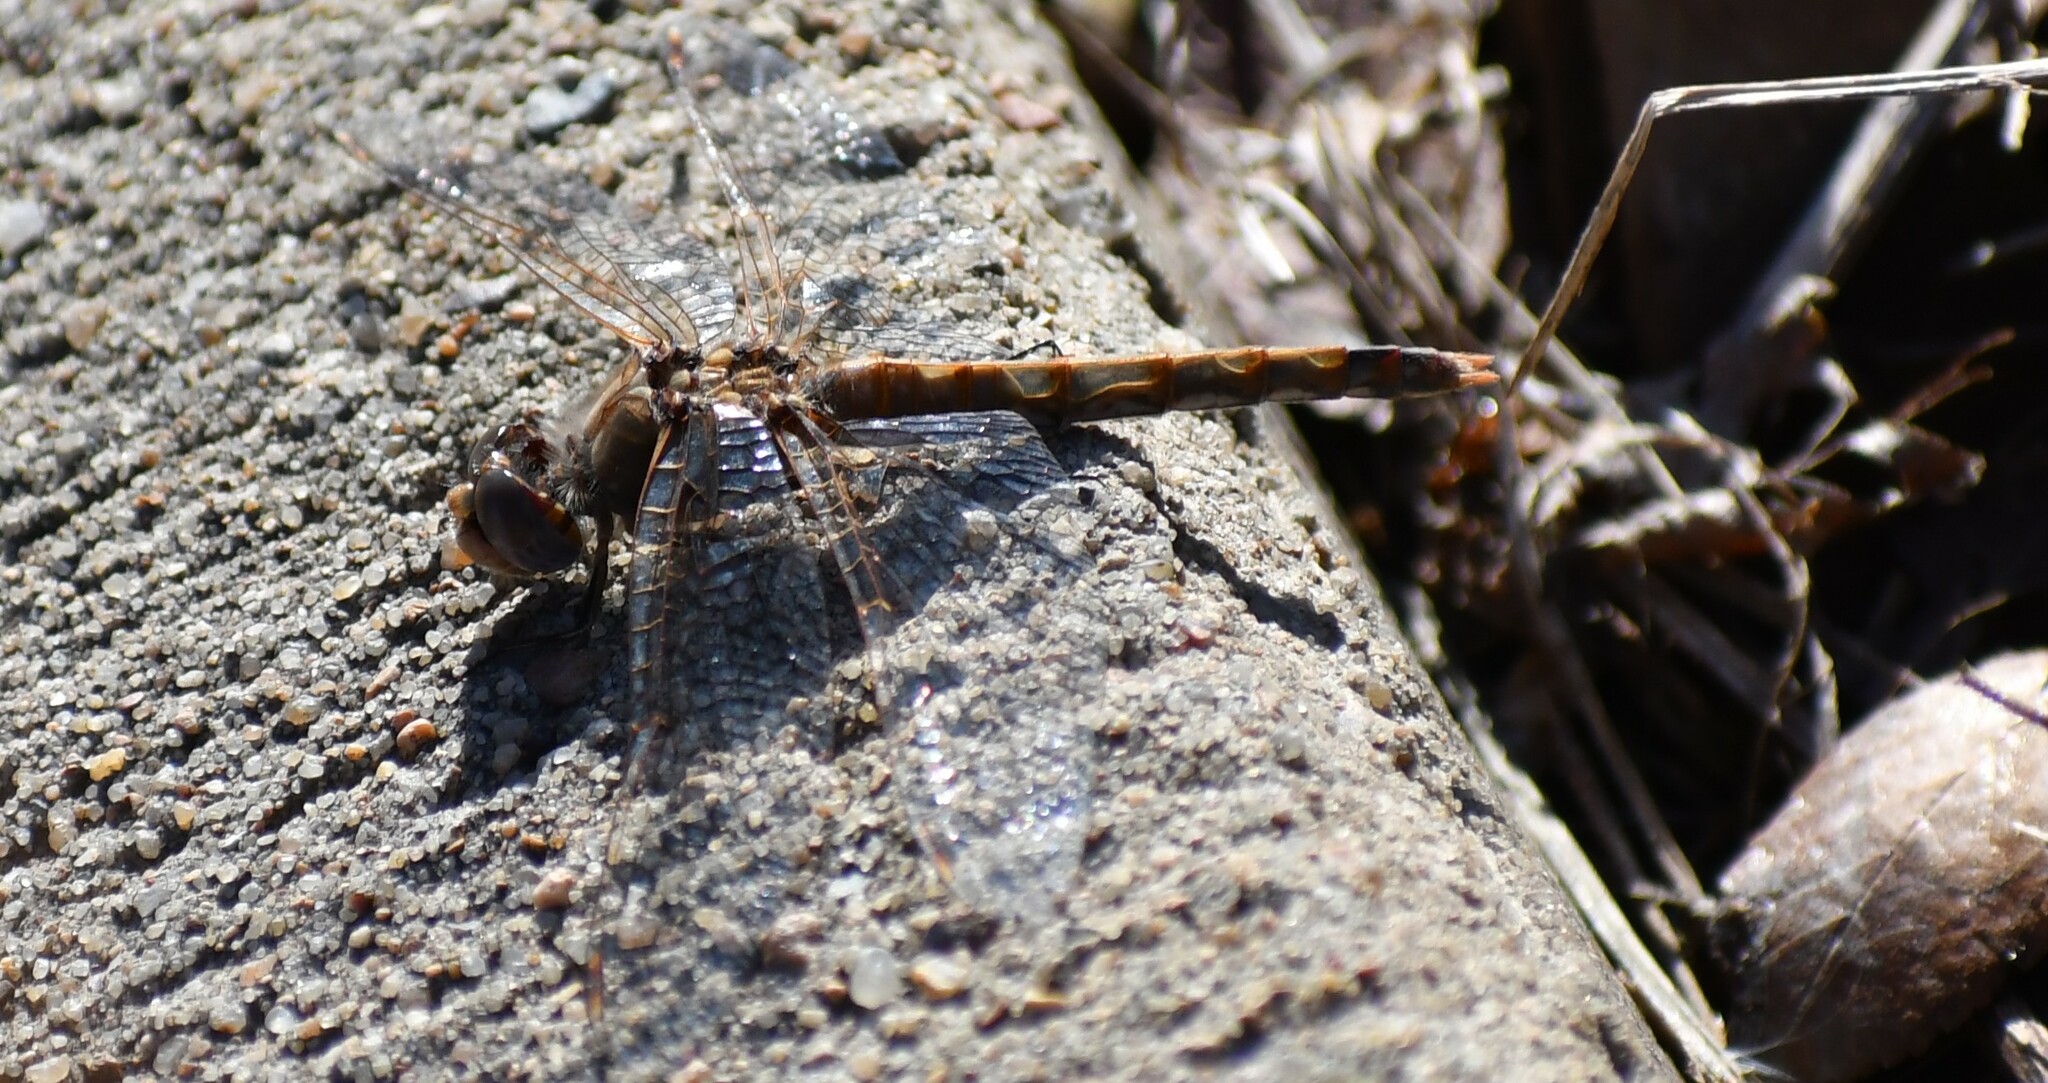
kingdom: Animalia
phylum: Arthropoda
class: Insecta
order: Odonata
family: Libellulidae
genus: Sympetrum
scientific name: Sympetrum corruptum
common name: Variegated meadowhawk
